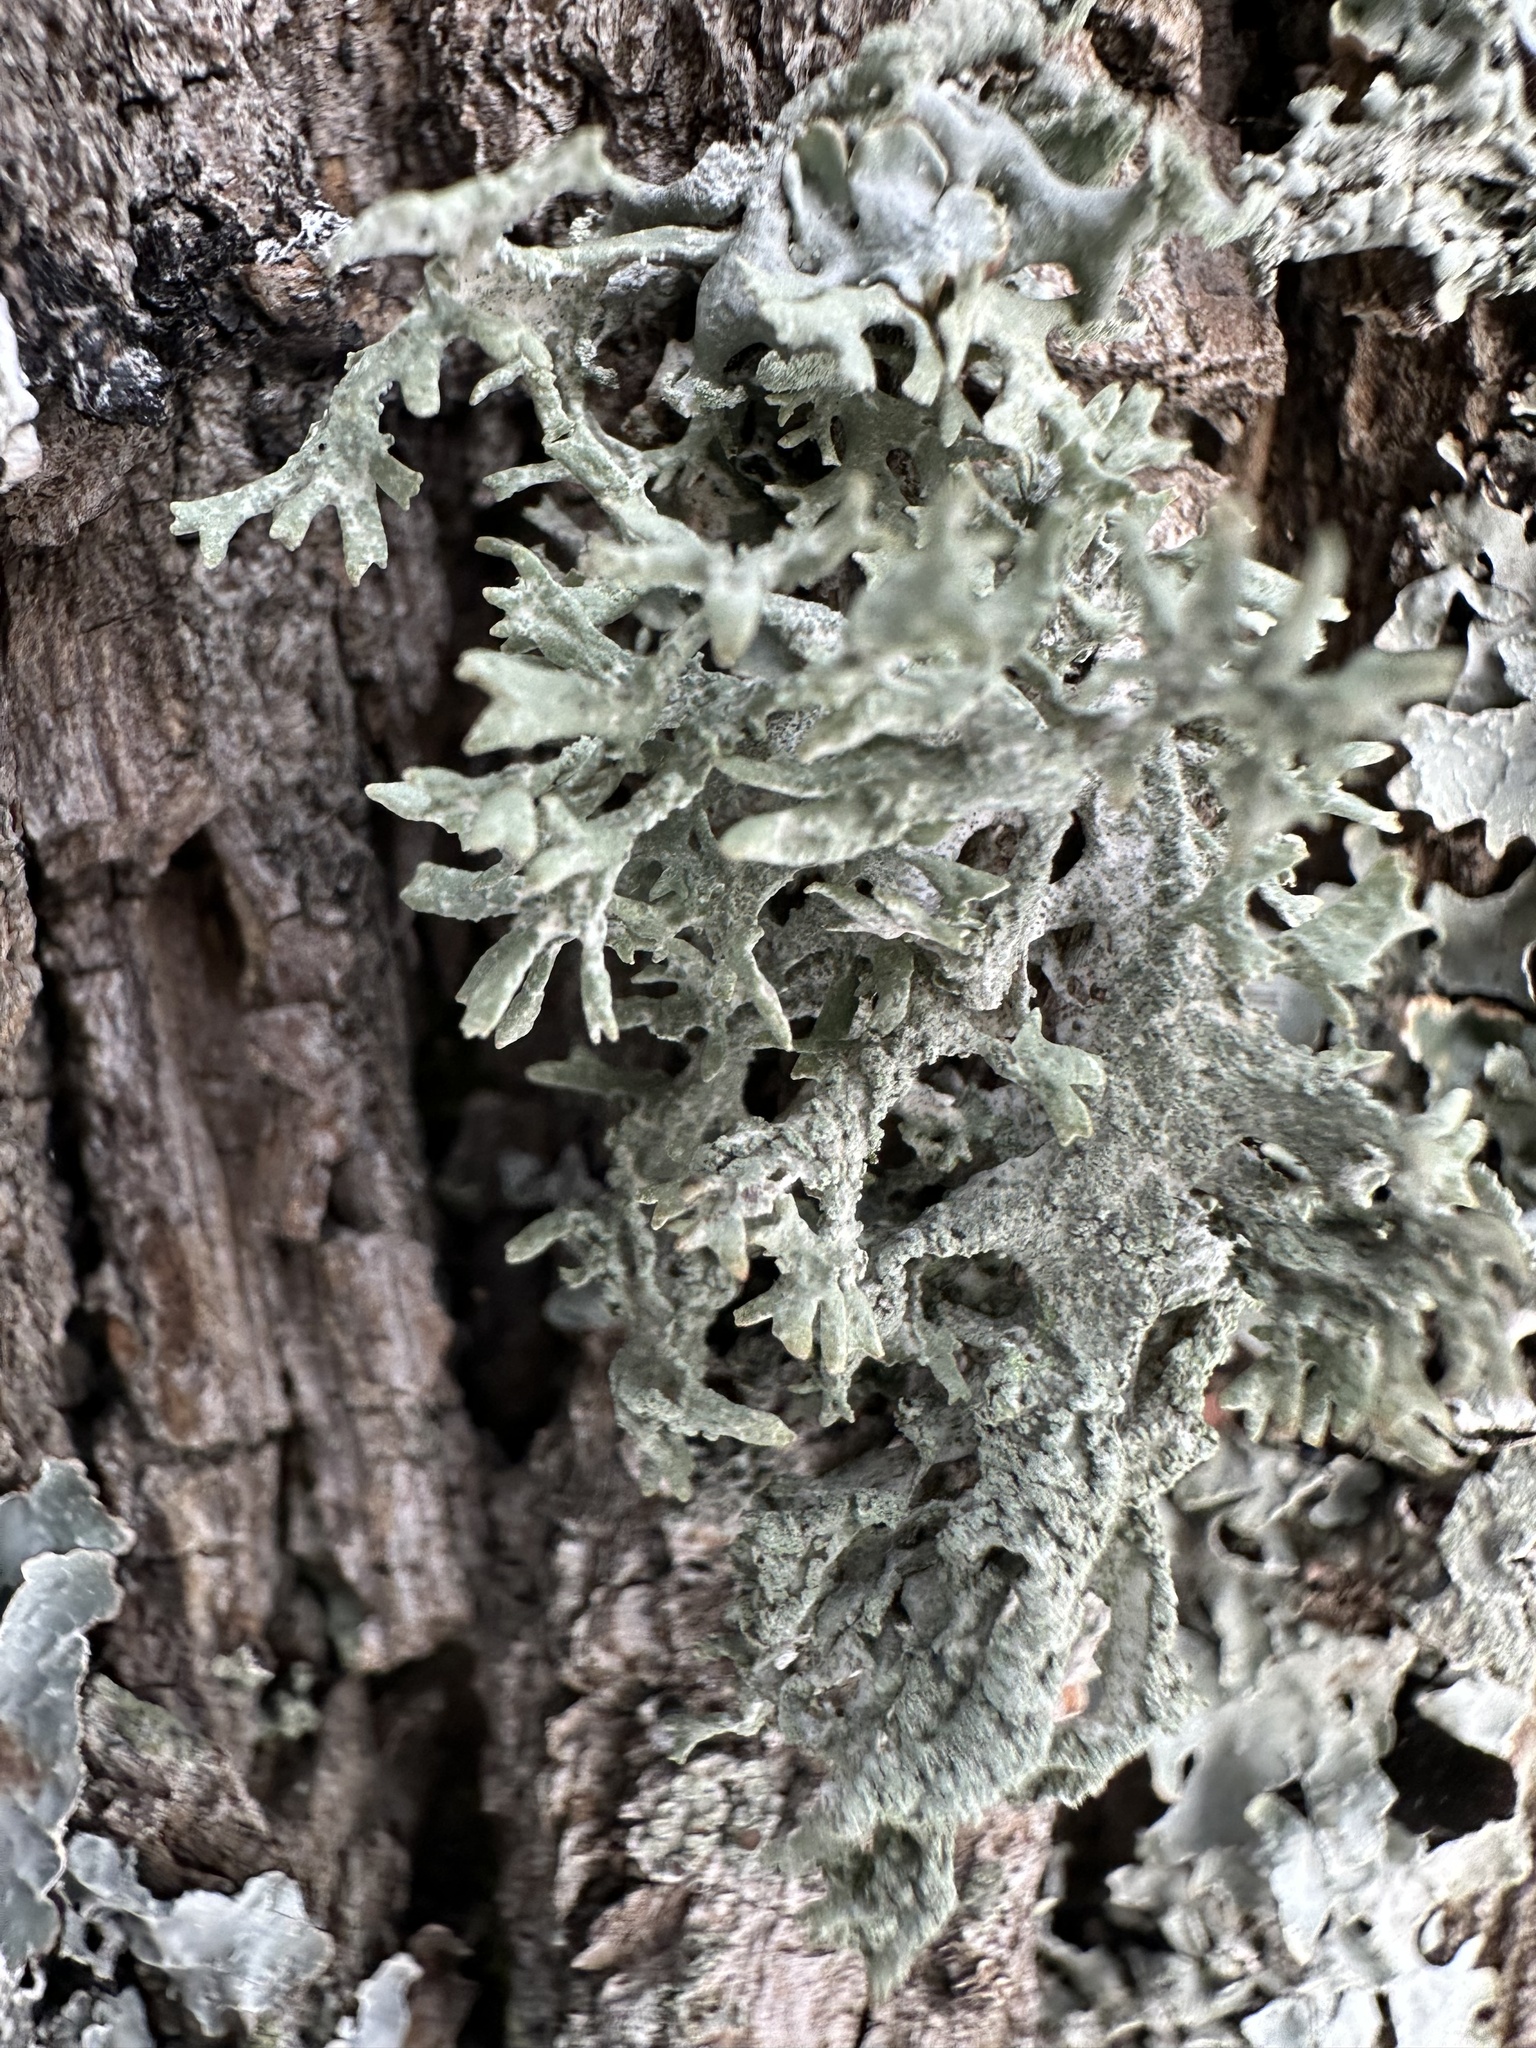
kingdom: Fungi
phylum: Ascomycota
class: Lecanoromycetes
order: Lecanorales
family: Parmeliaceae
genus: Evernia
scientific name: Evernia prunastri
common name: Oak moss
